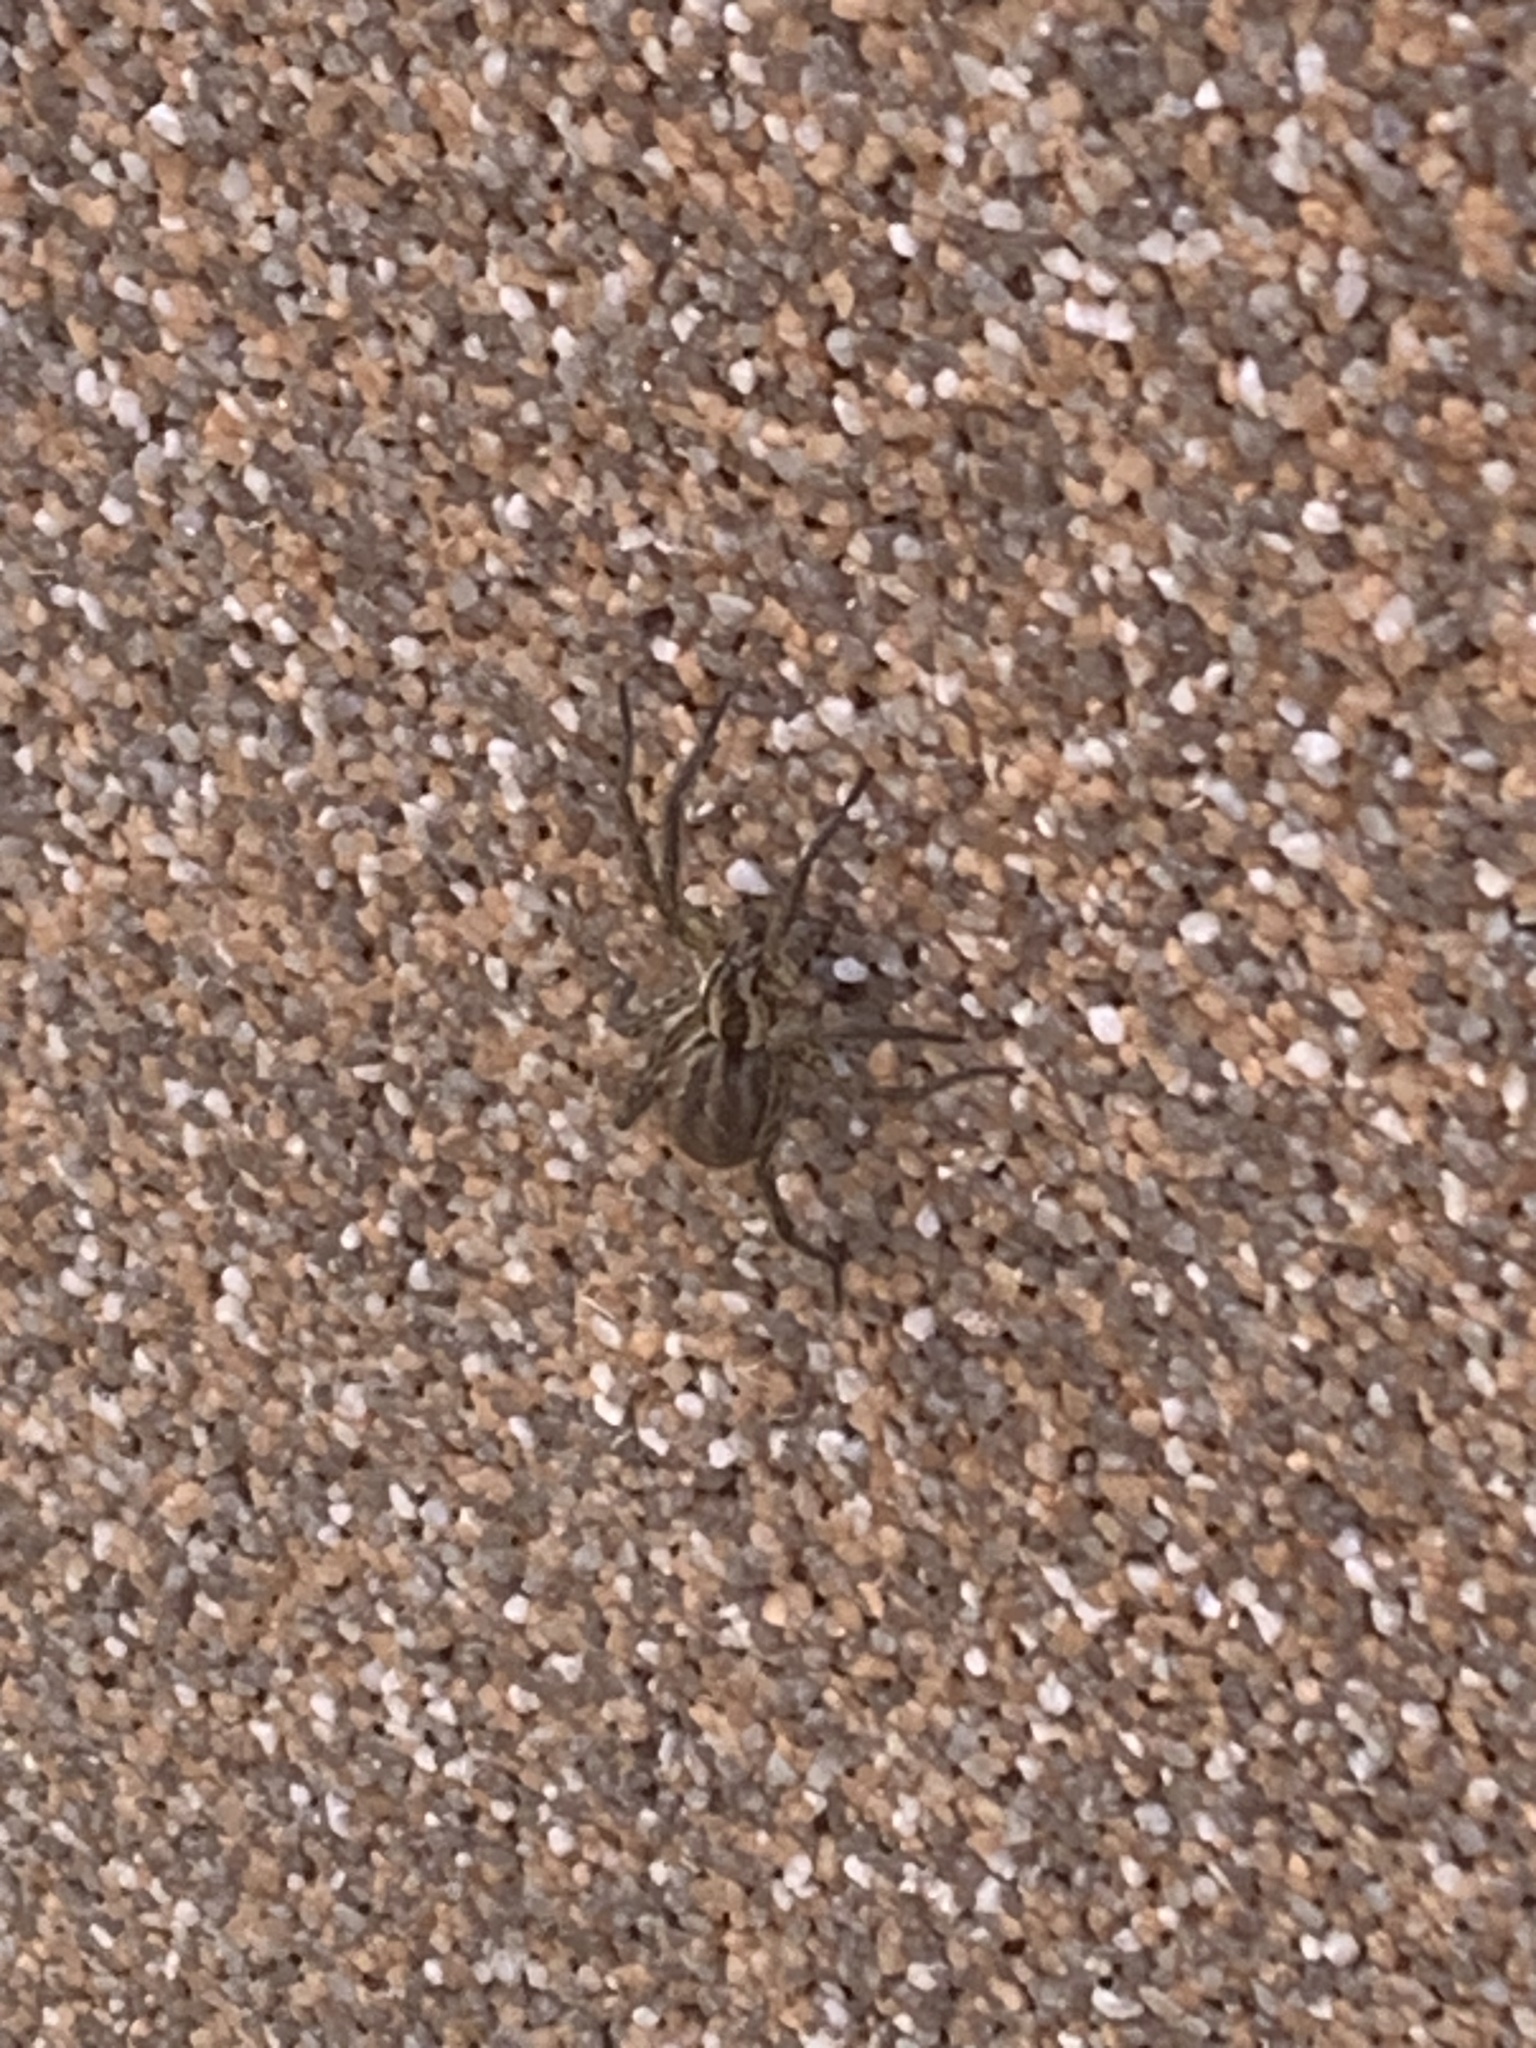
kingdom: Animalia
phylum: Arthropoda
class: Arachnida
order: Araneae
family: Lycosidae
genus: Hogna
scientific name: Hogna radiata
